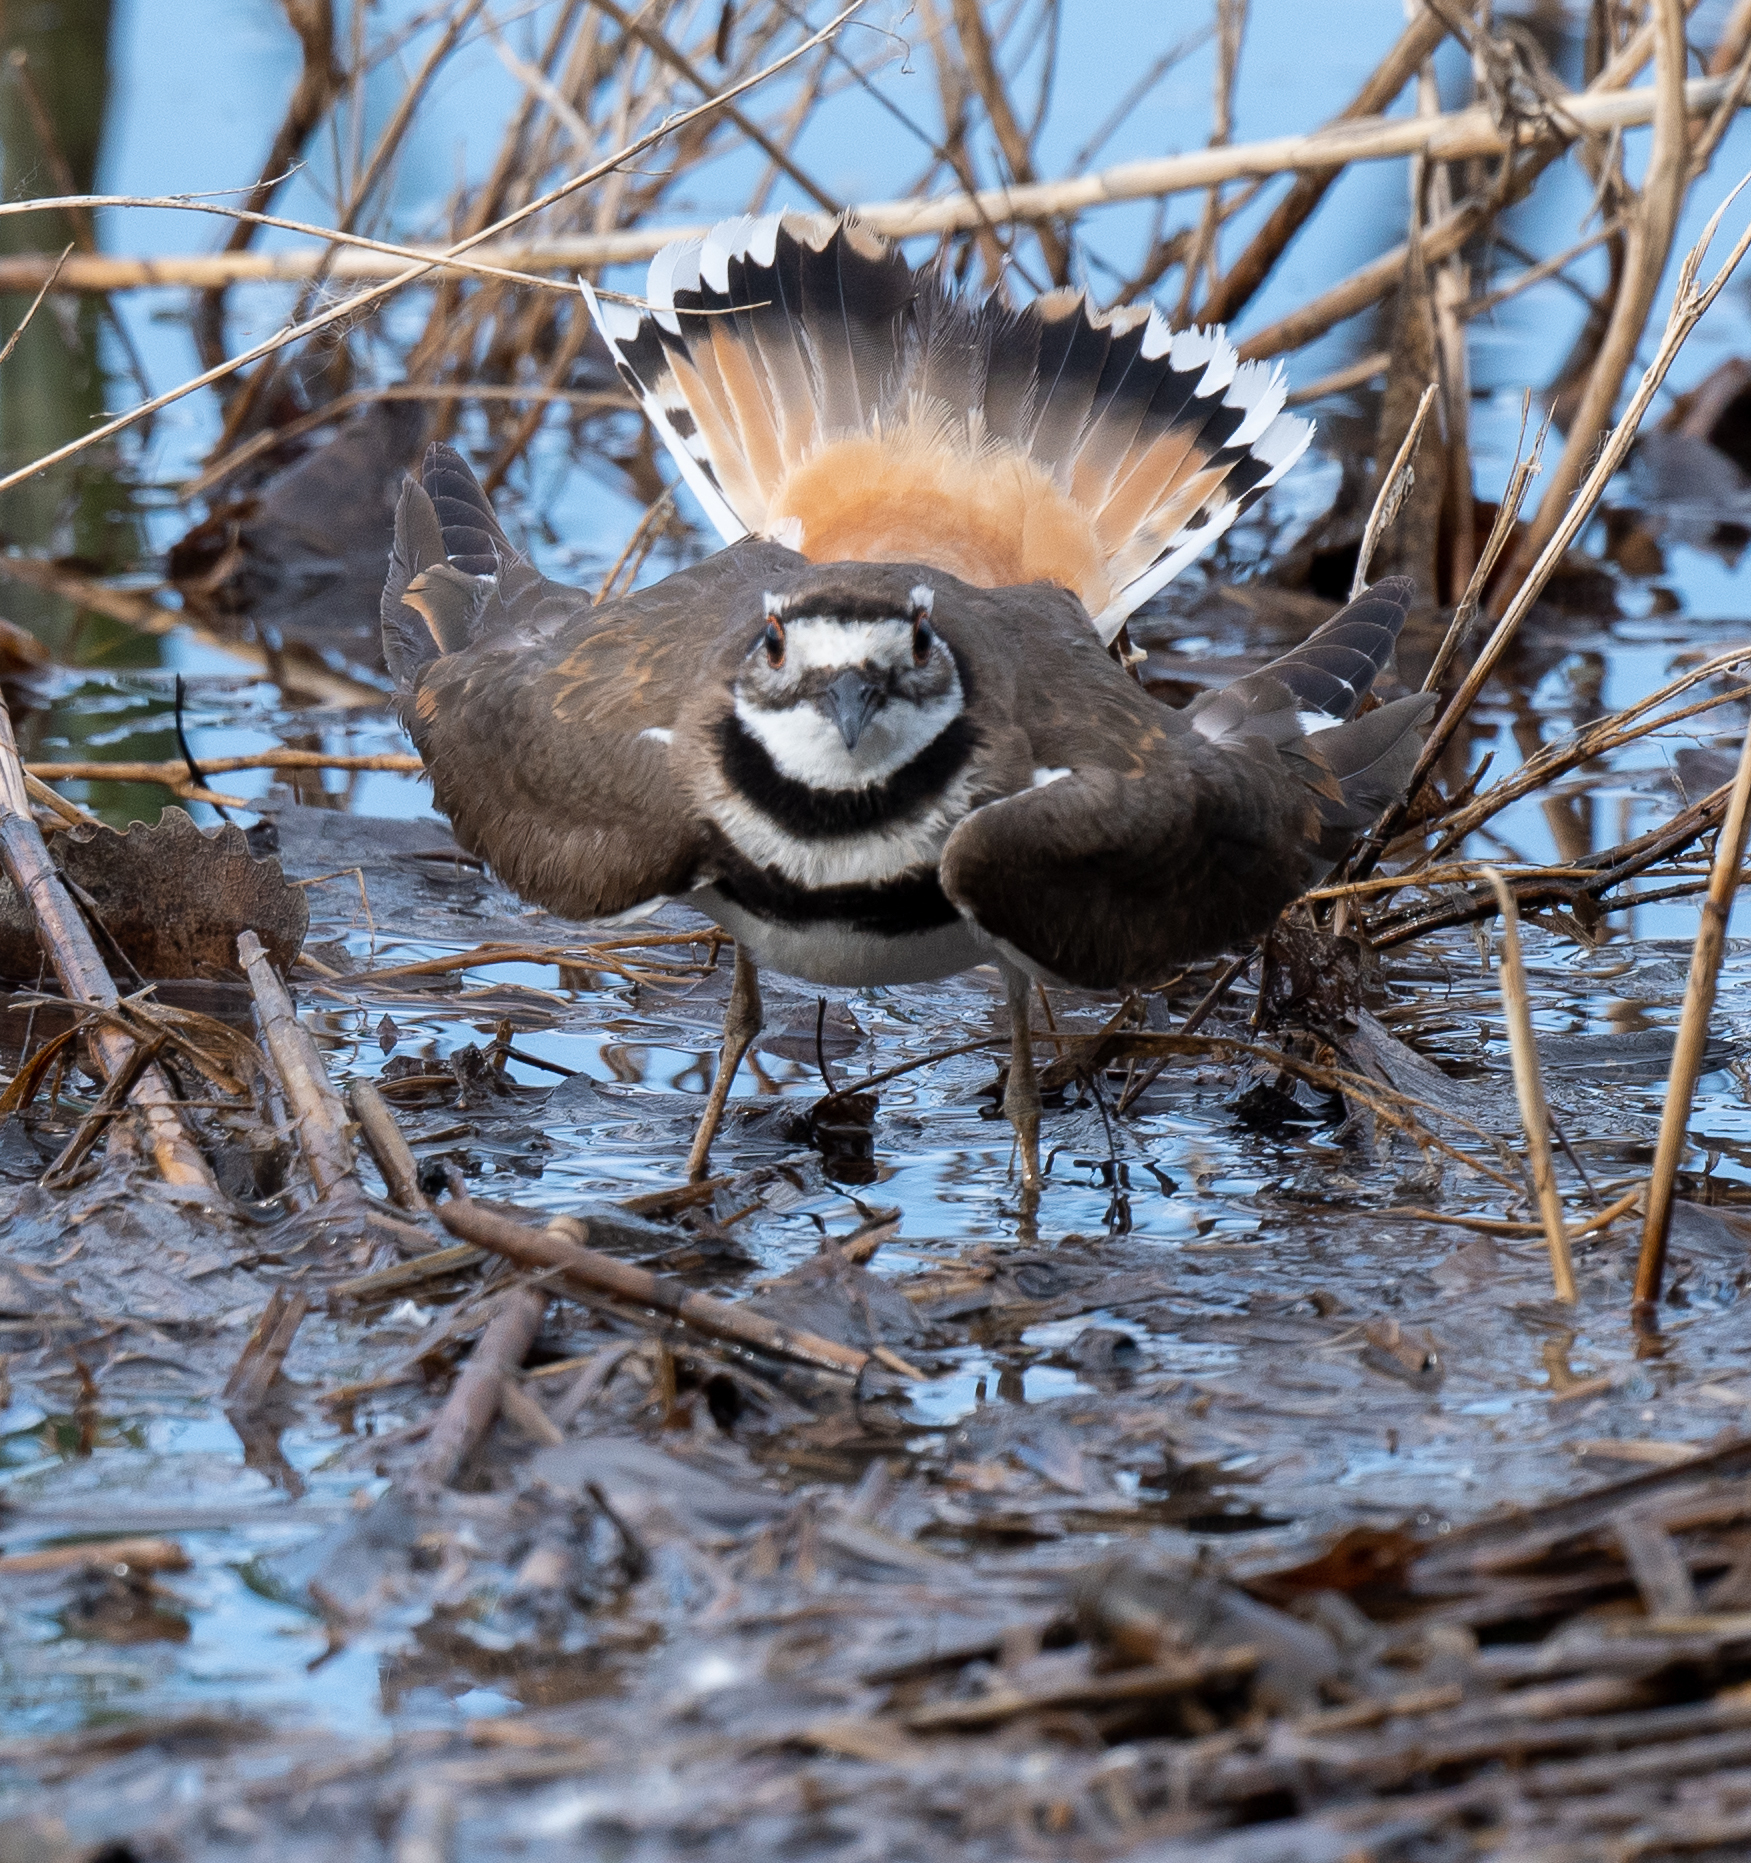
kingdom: Animalia
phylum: Chordata
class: Aves
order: Charadriiformes
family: Charadriidae
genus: Charadrius
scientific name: Charadrius vociferus
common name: Killdeer
